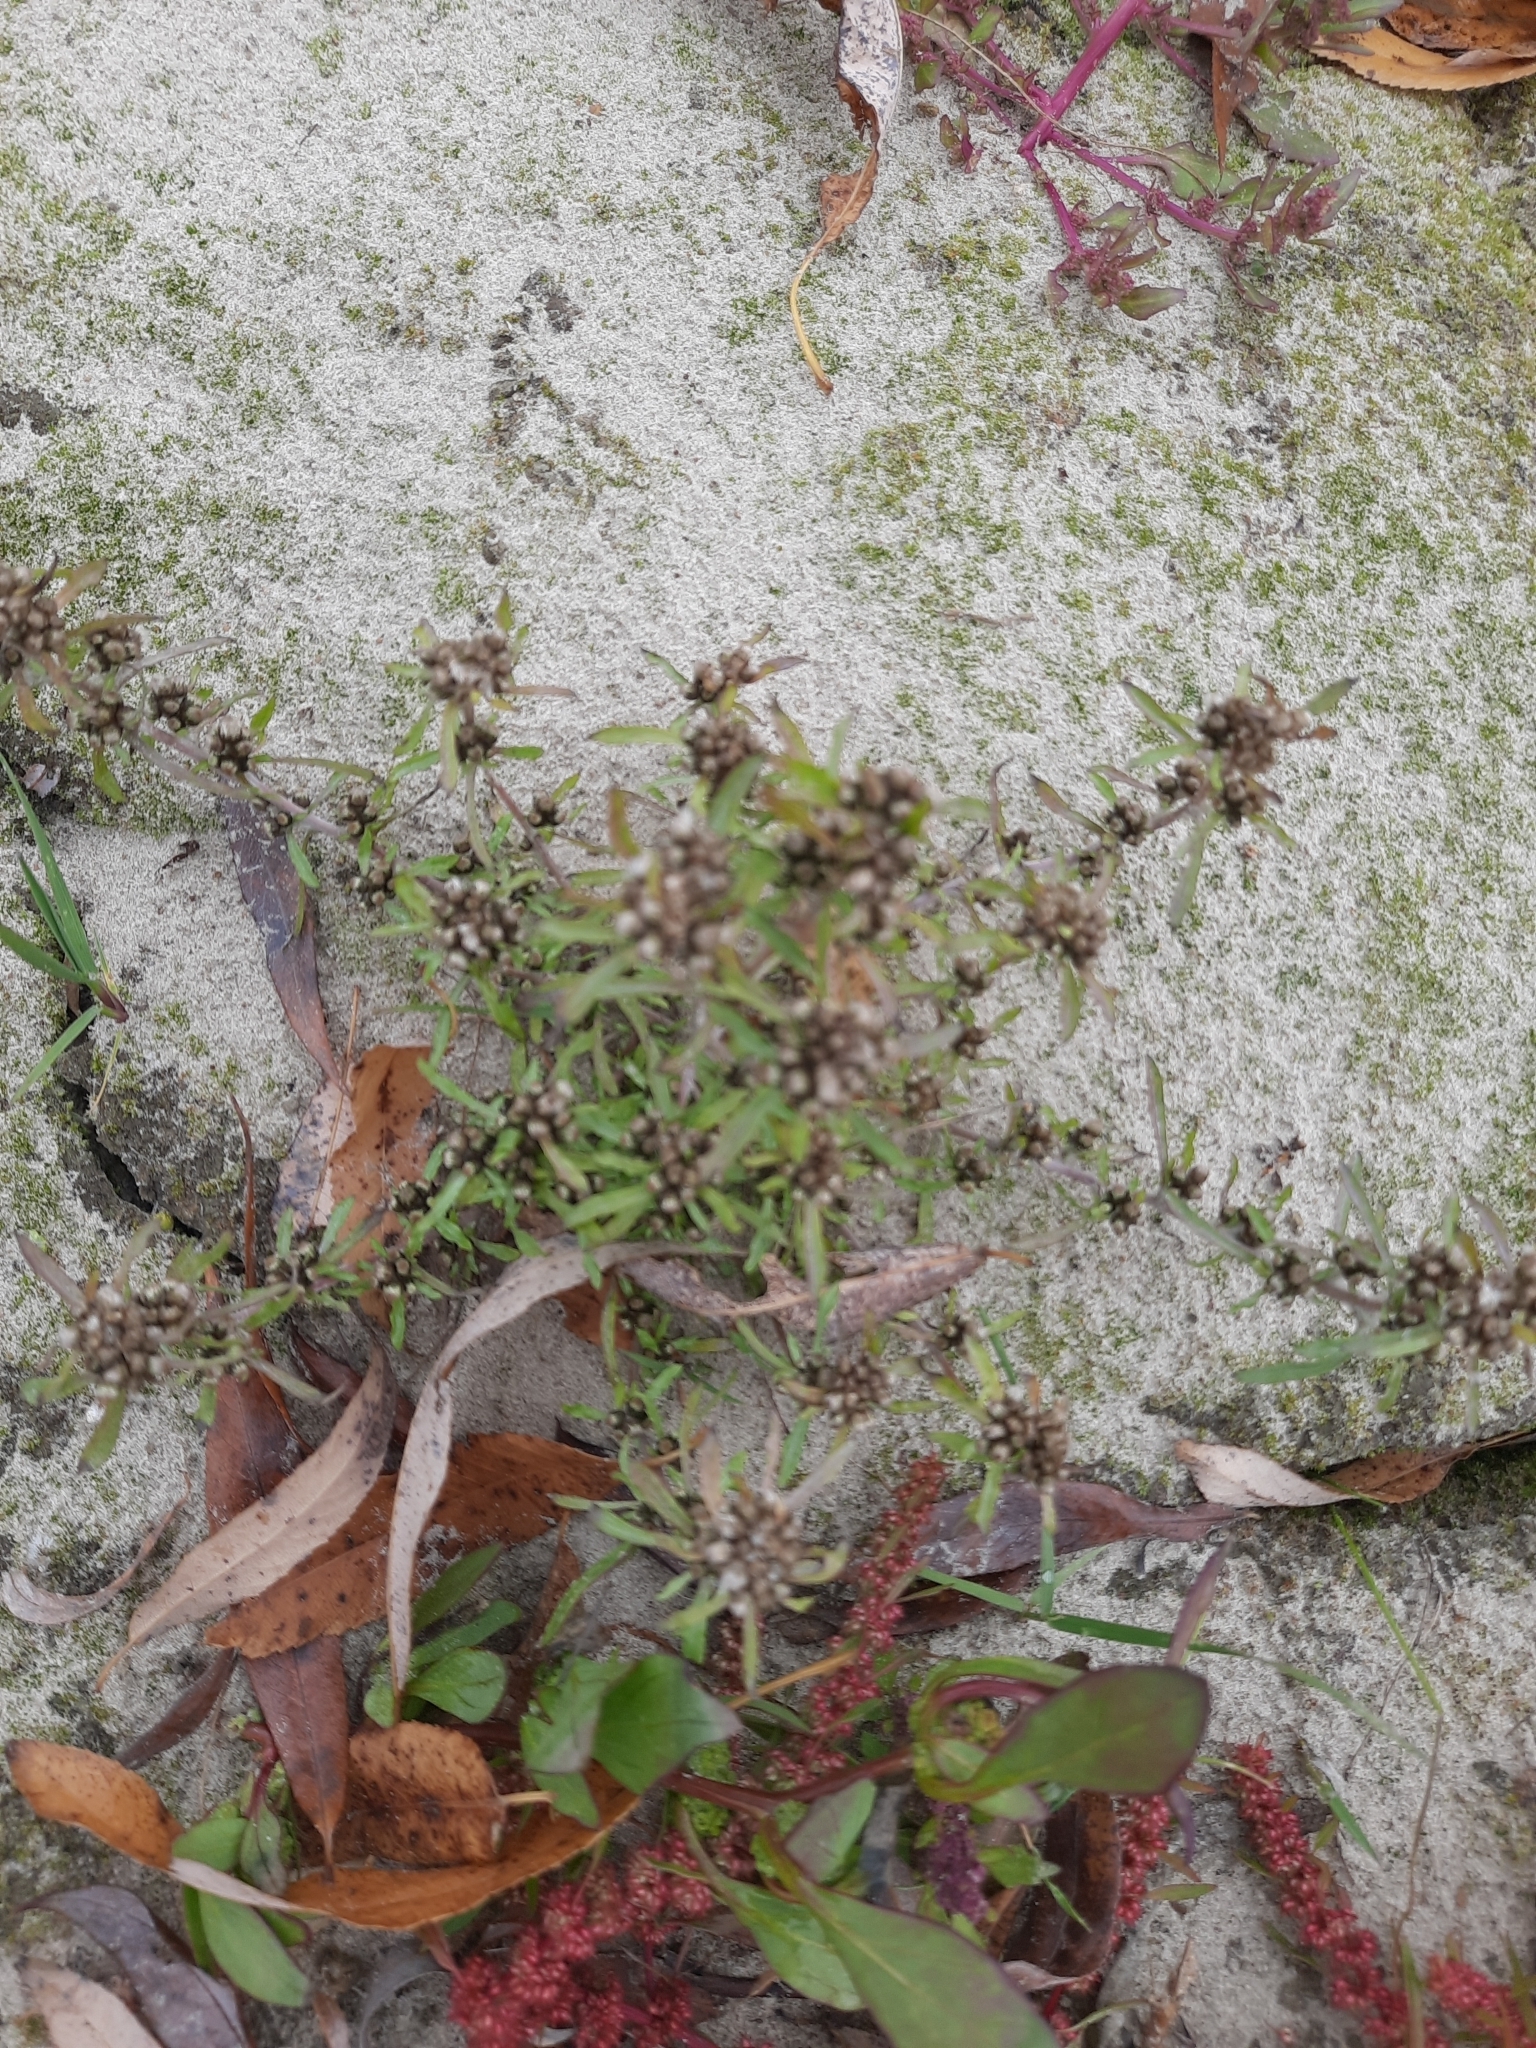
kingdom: Plantae
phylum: Tracheophyta
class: Magnoliopsida
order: Asterales
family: Asteraceae
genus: Gnaphalium
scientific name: Gnaphalium pilulare
